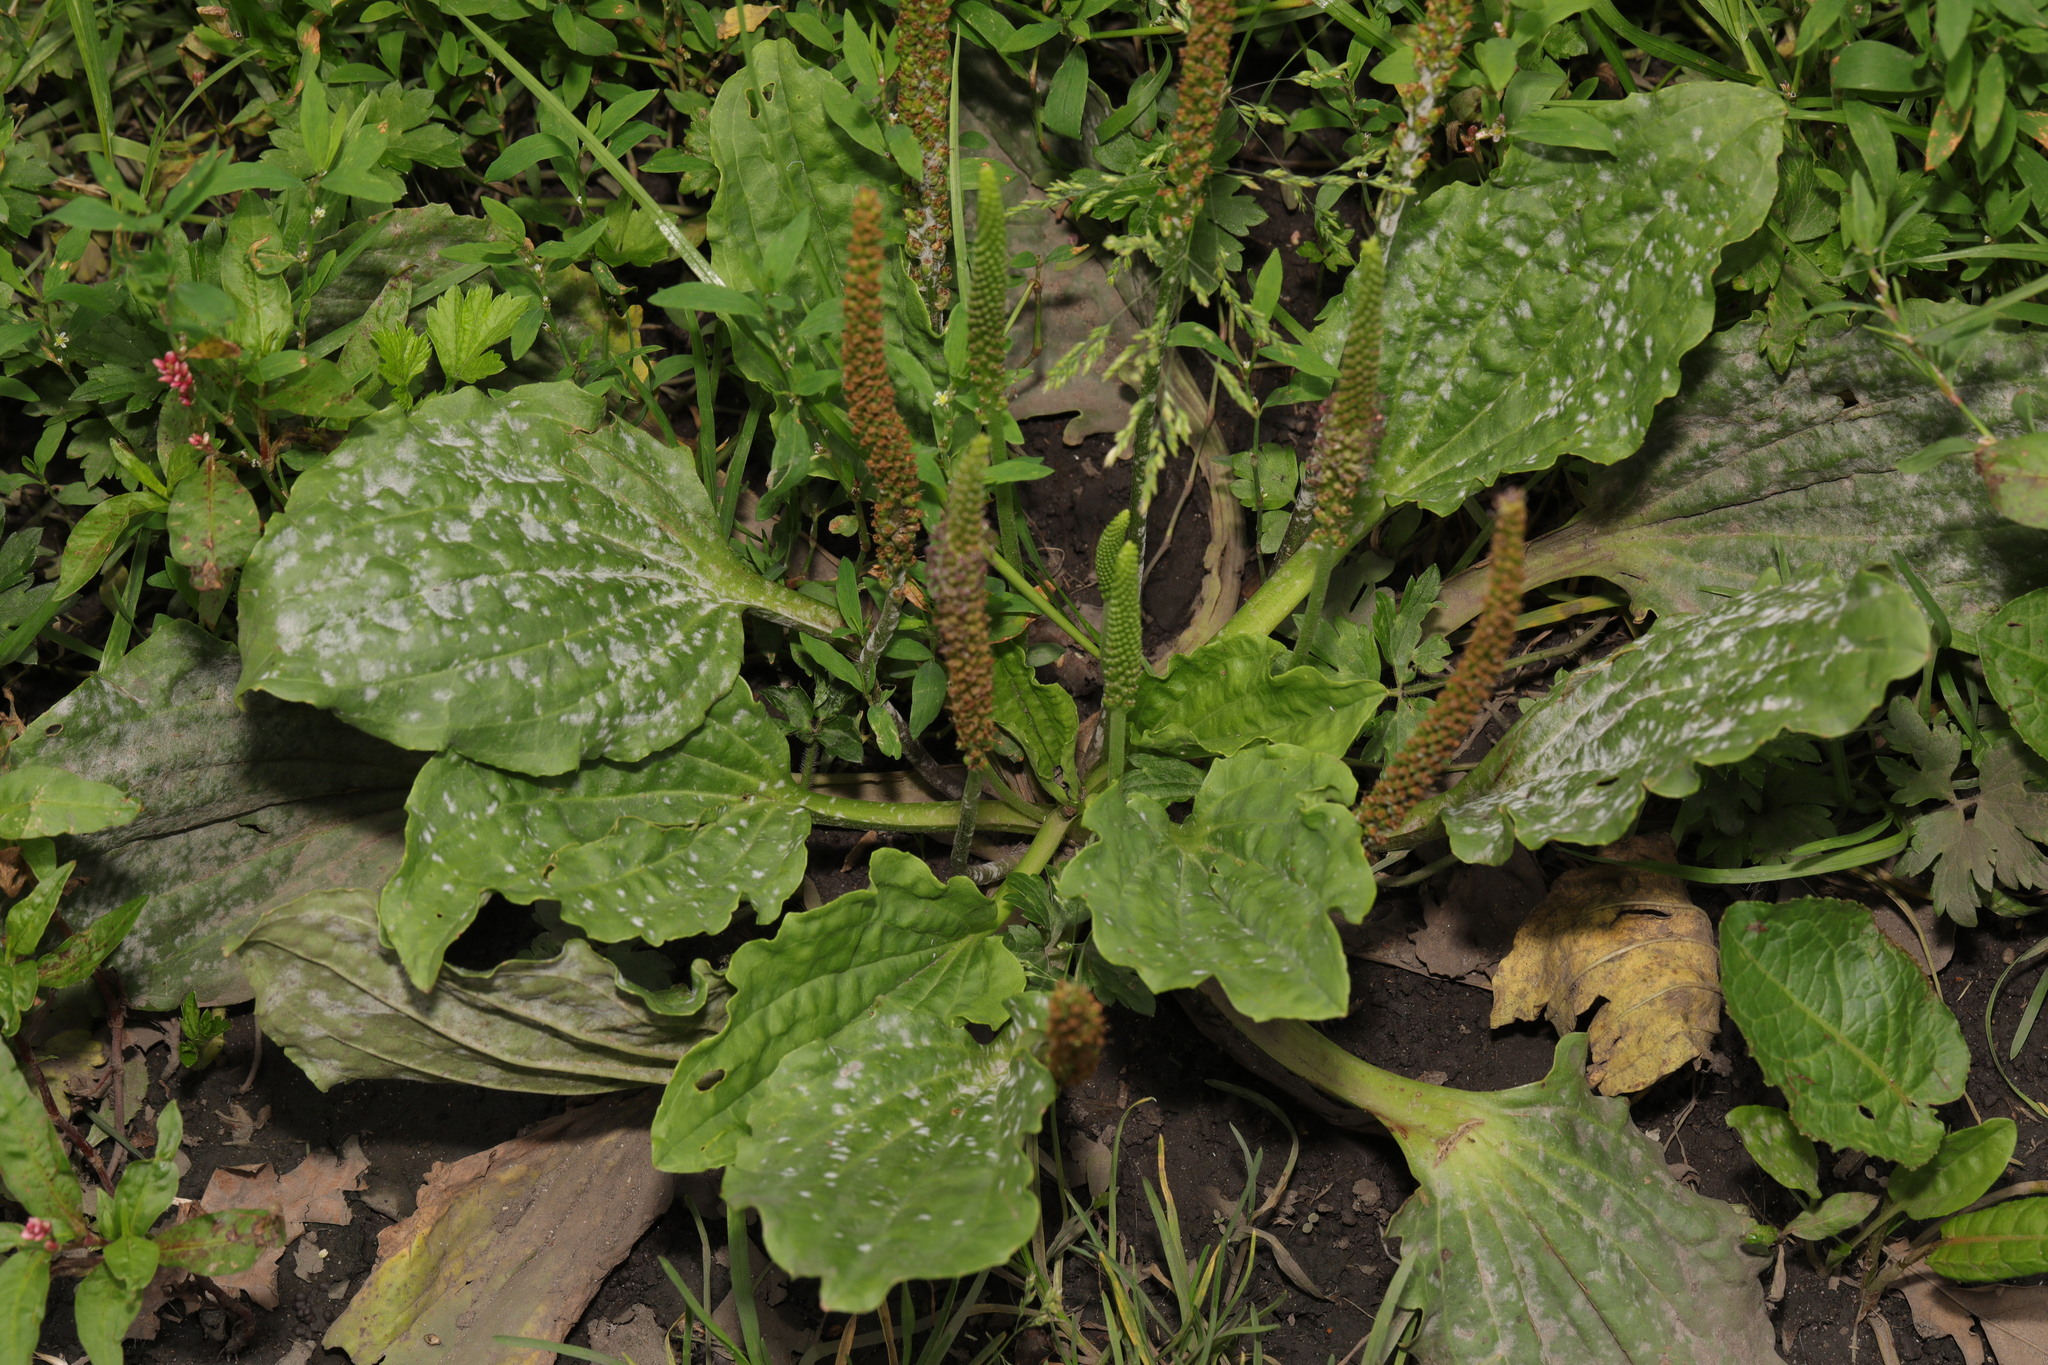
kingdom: Plantae
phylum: Tracheophyta
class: Magnoliopsida
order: Lamiales
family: Plantaginaceae
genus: Plantago
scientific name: Plantago major
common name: Common plantain
